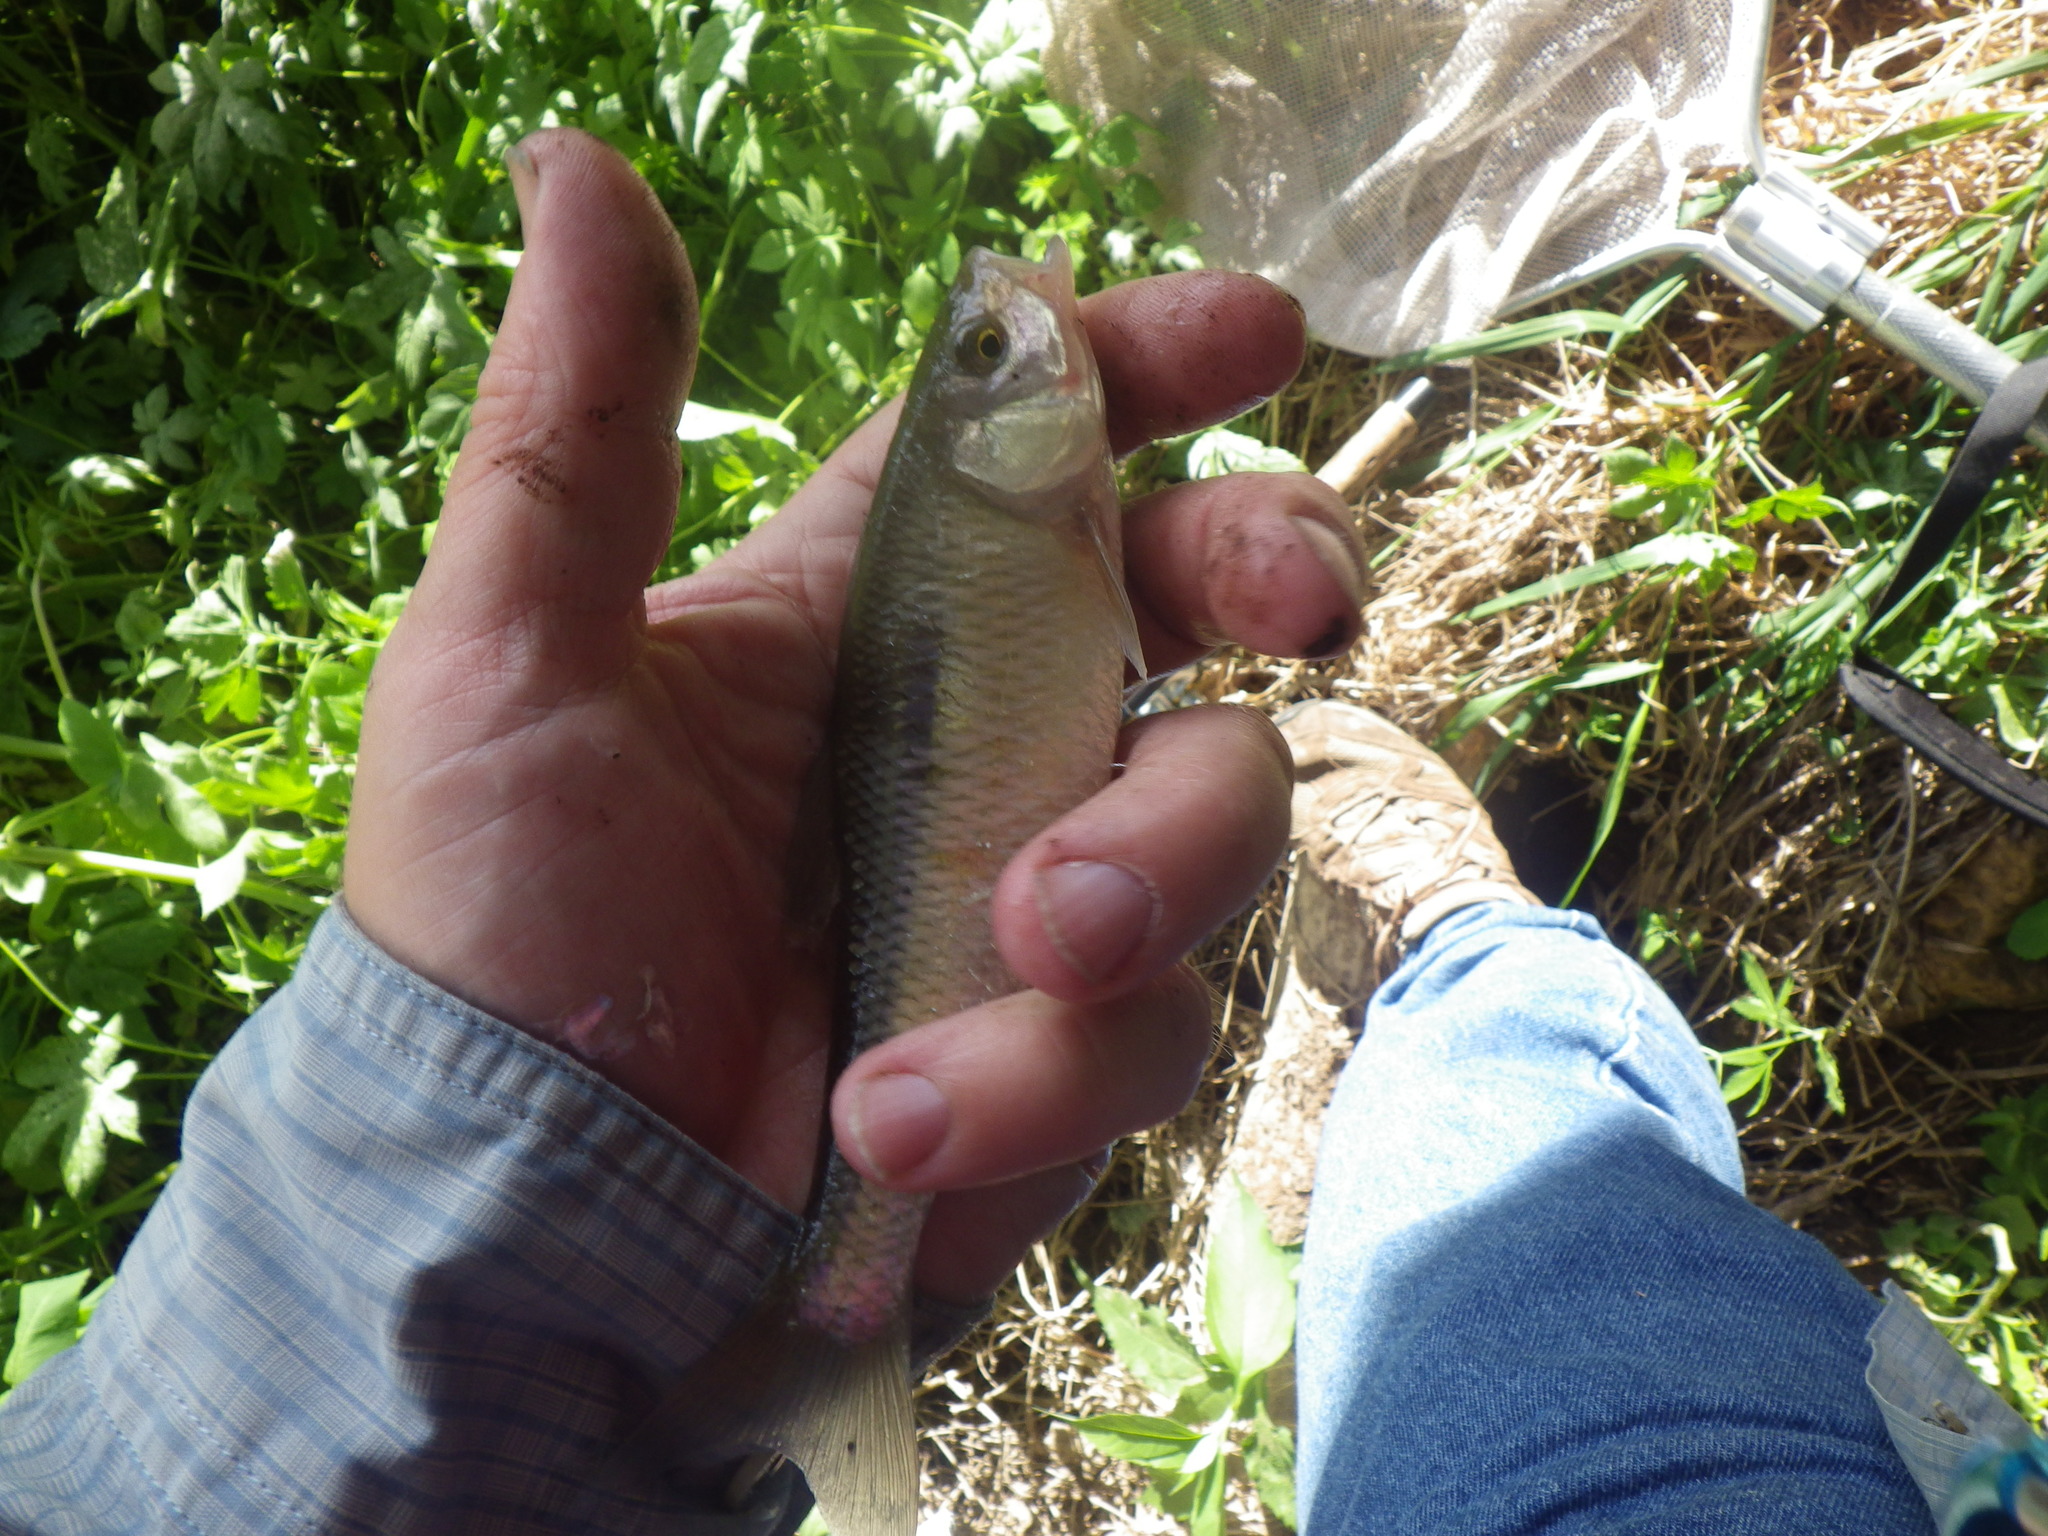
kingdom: Animalia
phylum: Chordata
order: Cypriniformes
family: Cyprinidae
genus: Luxilus
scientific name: Luxilus cornutus
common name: Common shiner
